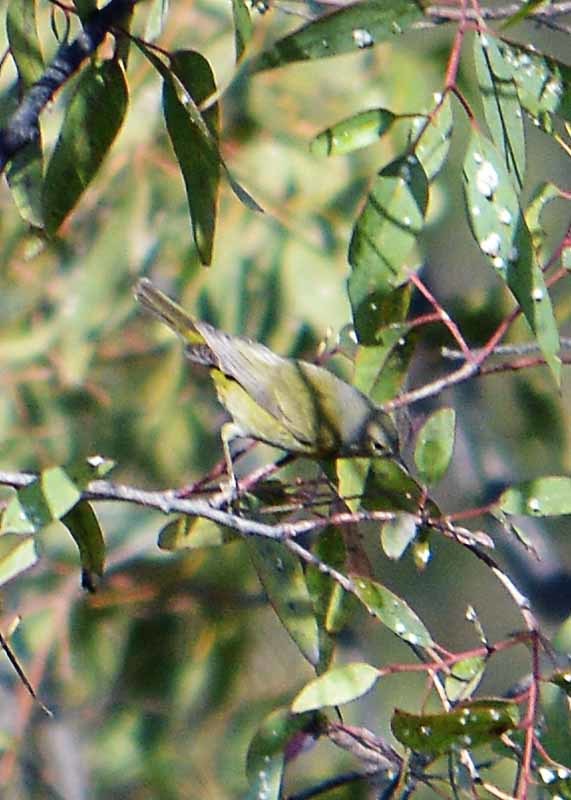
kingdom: Animalia
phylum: Chordata
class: Aves
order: Passeriformes
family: Parulidae
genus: Leiothlypis
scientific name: Leiothlypis celata
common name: Orange-crowned warbler
